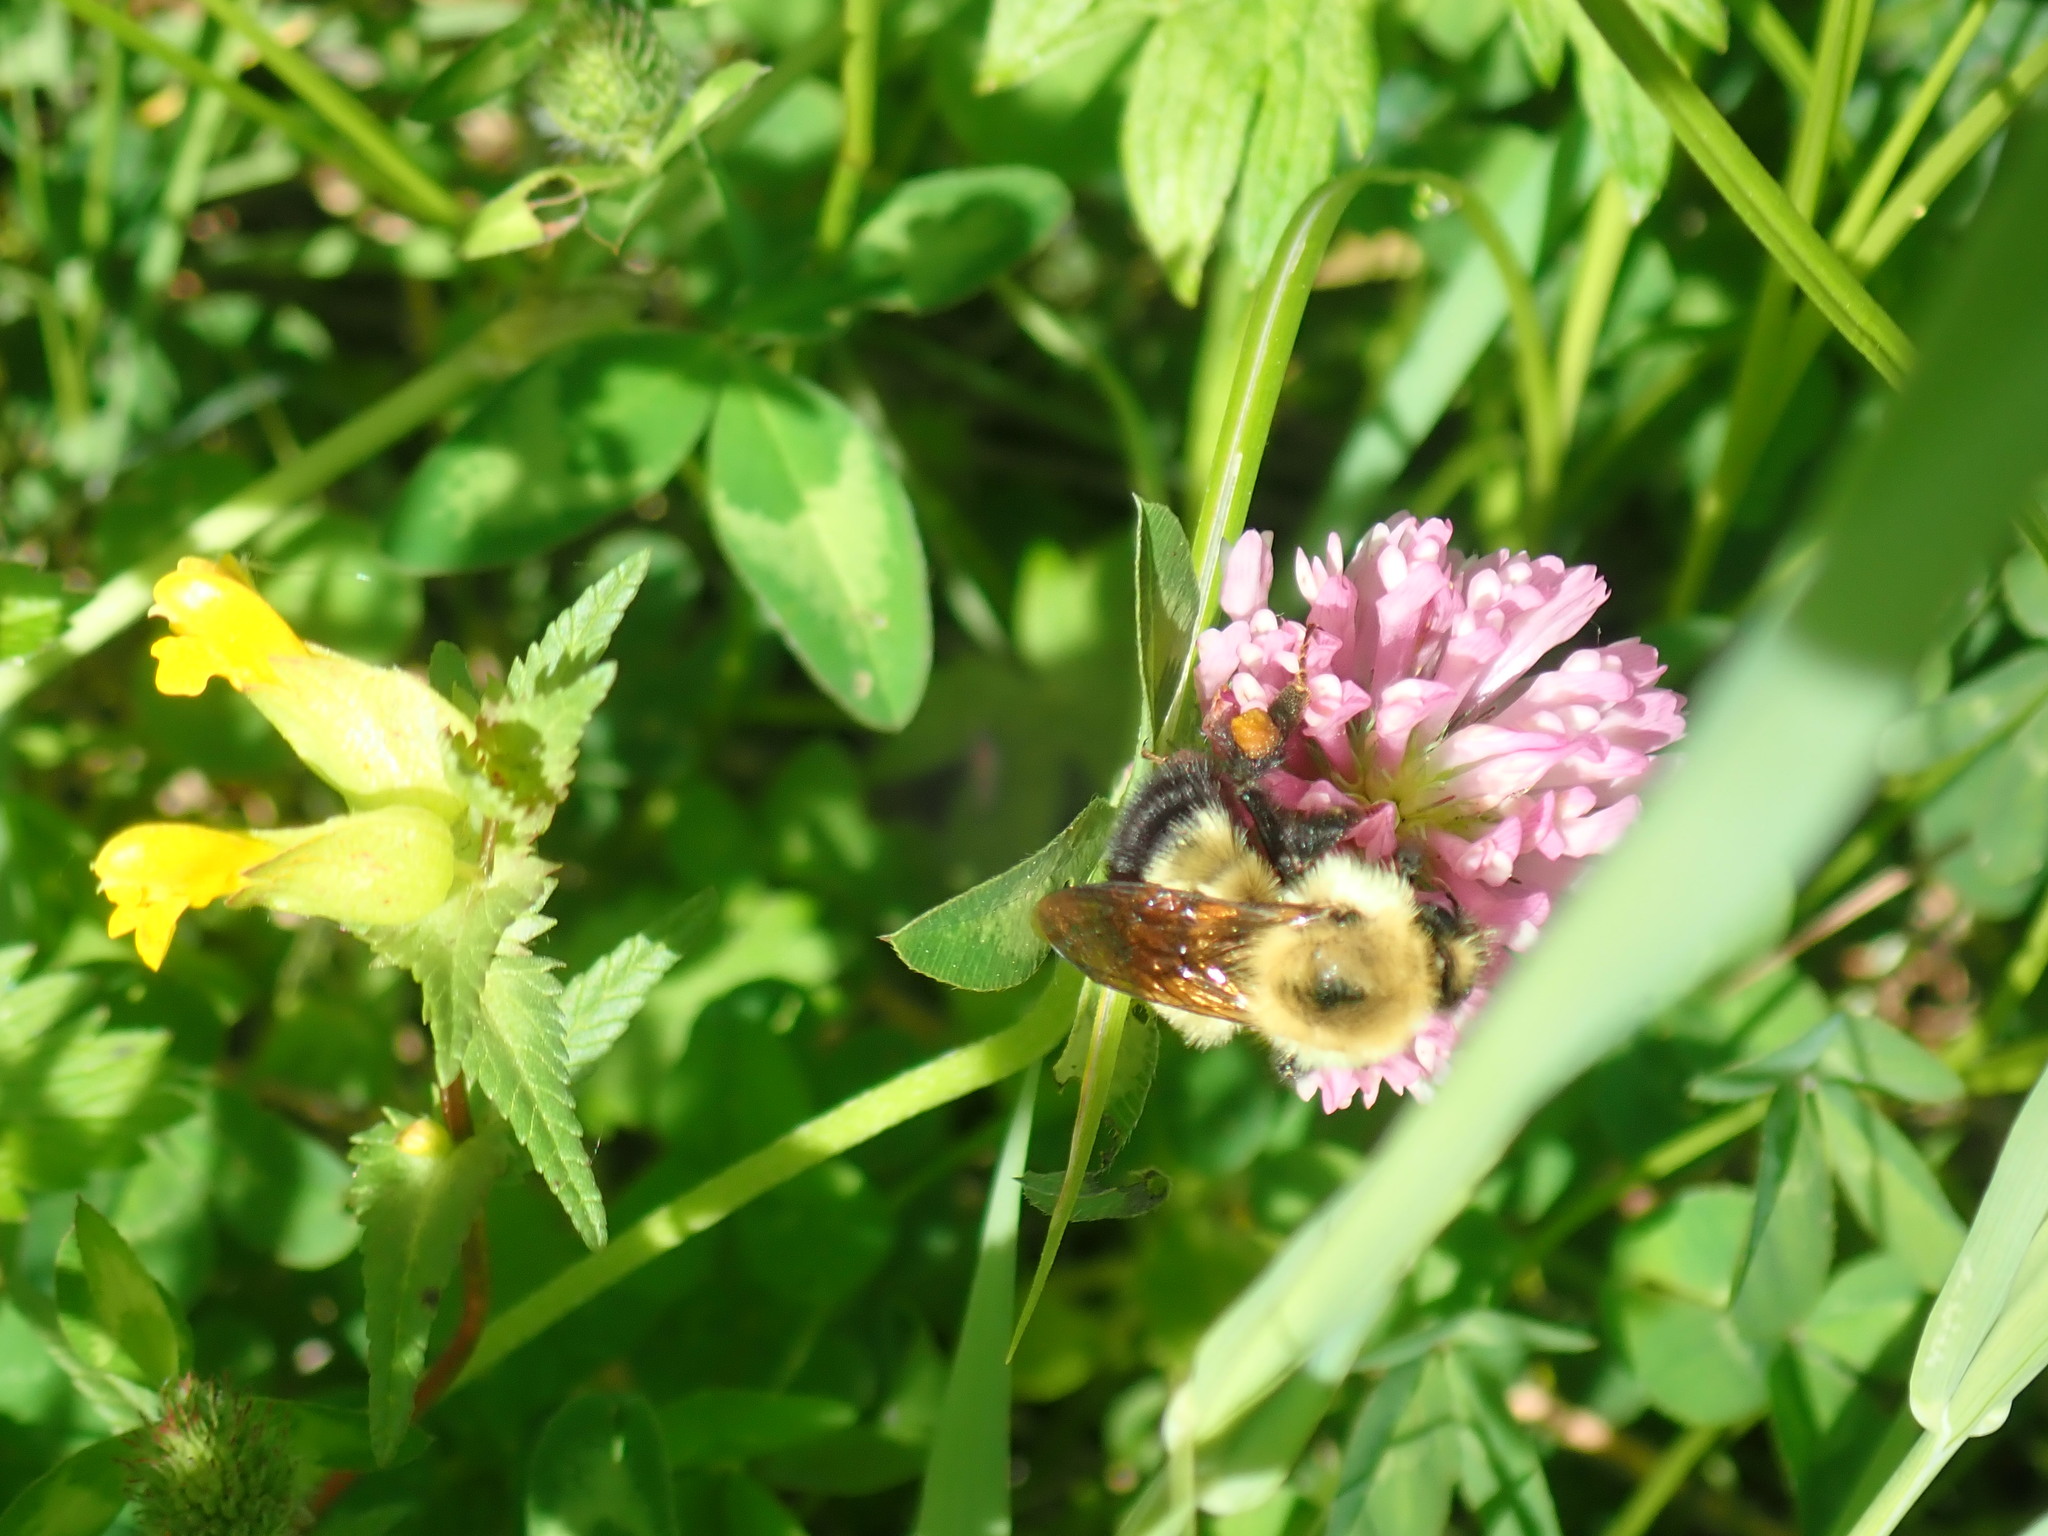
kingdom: Animalia
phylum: Arthropoda
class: Insecta
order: Hymenoptera
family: Apidae
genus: Pyrobombus
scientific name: Pyrobombus
